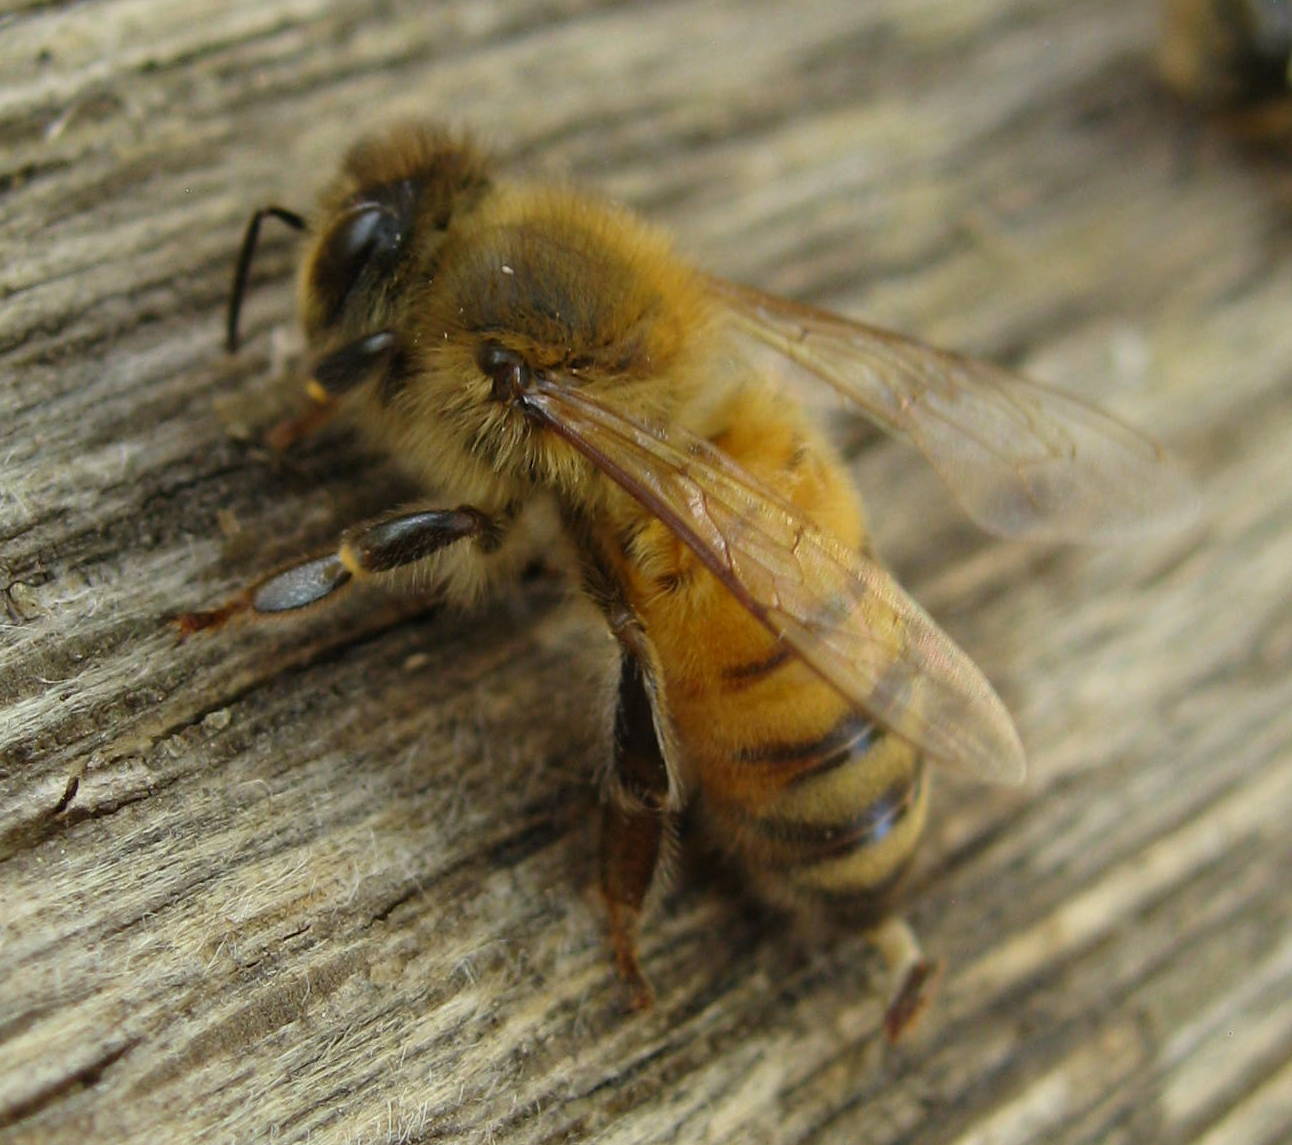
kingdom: Animalia
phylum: Arthropoda
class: Insecta
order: Hymenoptera
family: Apidae
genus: Apis
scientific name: Apis mellifera
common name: Honey bee
